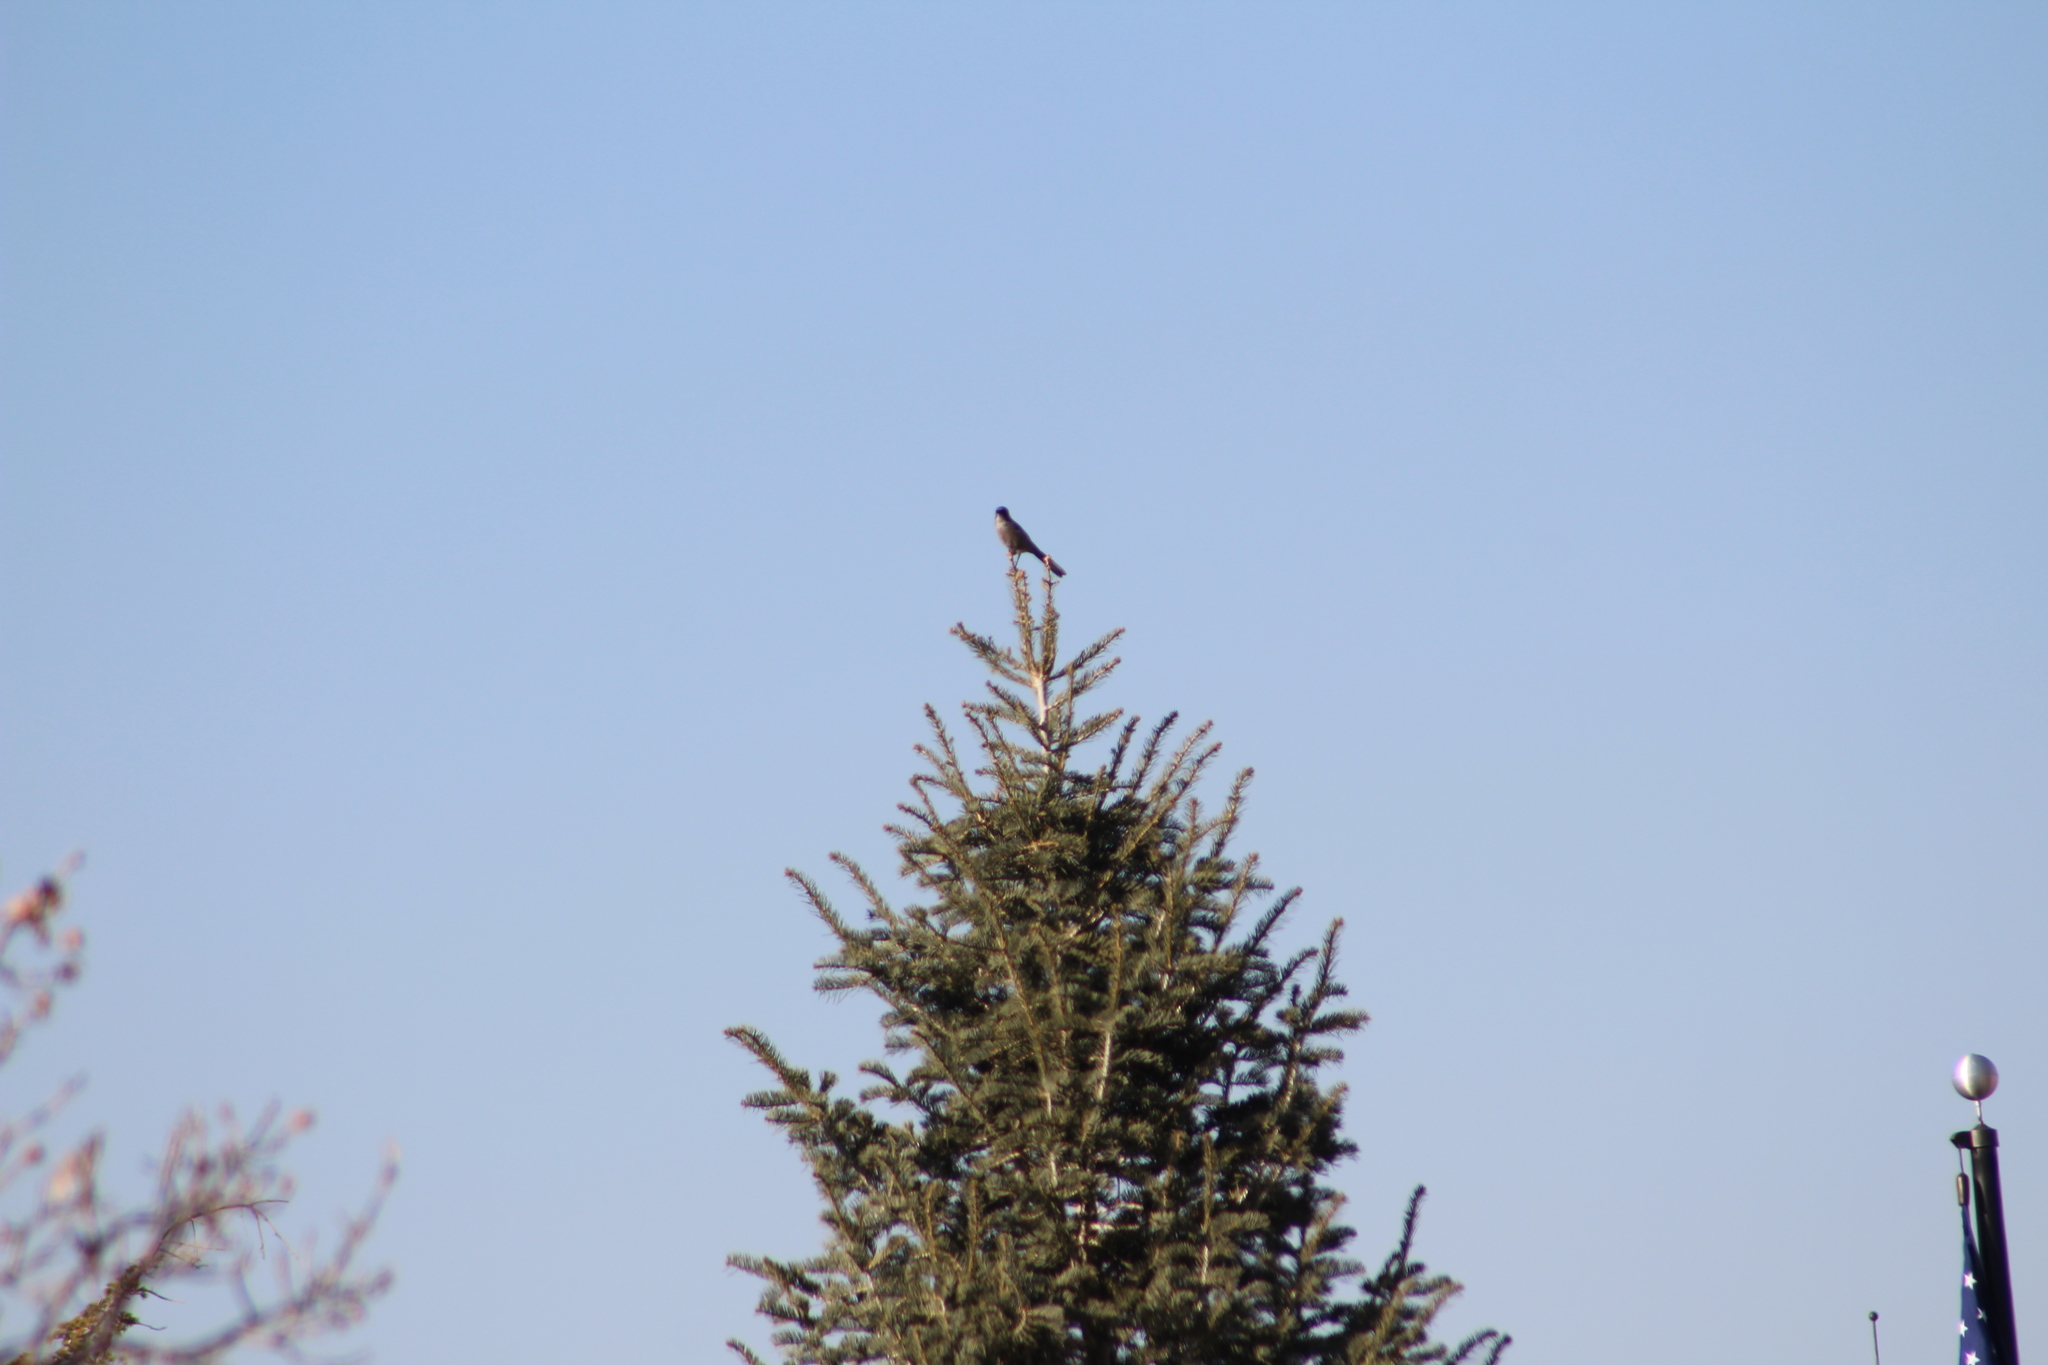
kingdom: Animalia
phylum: Chordata
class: Aves
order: Passeriformes
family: Corvidae
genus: Aphelocoma
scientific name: Aphelocoma woodhouseii
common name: Woodhouse's scrub-jay
